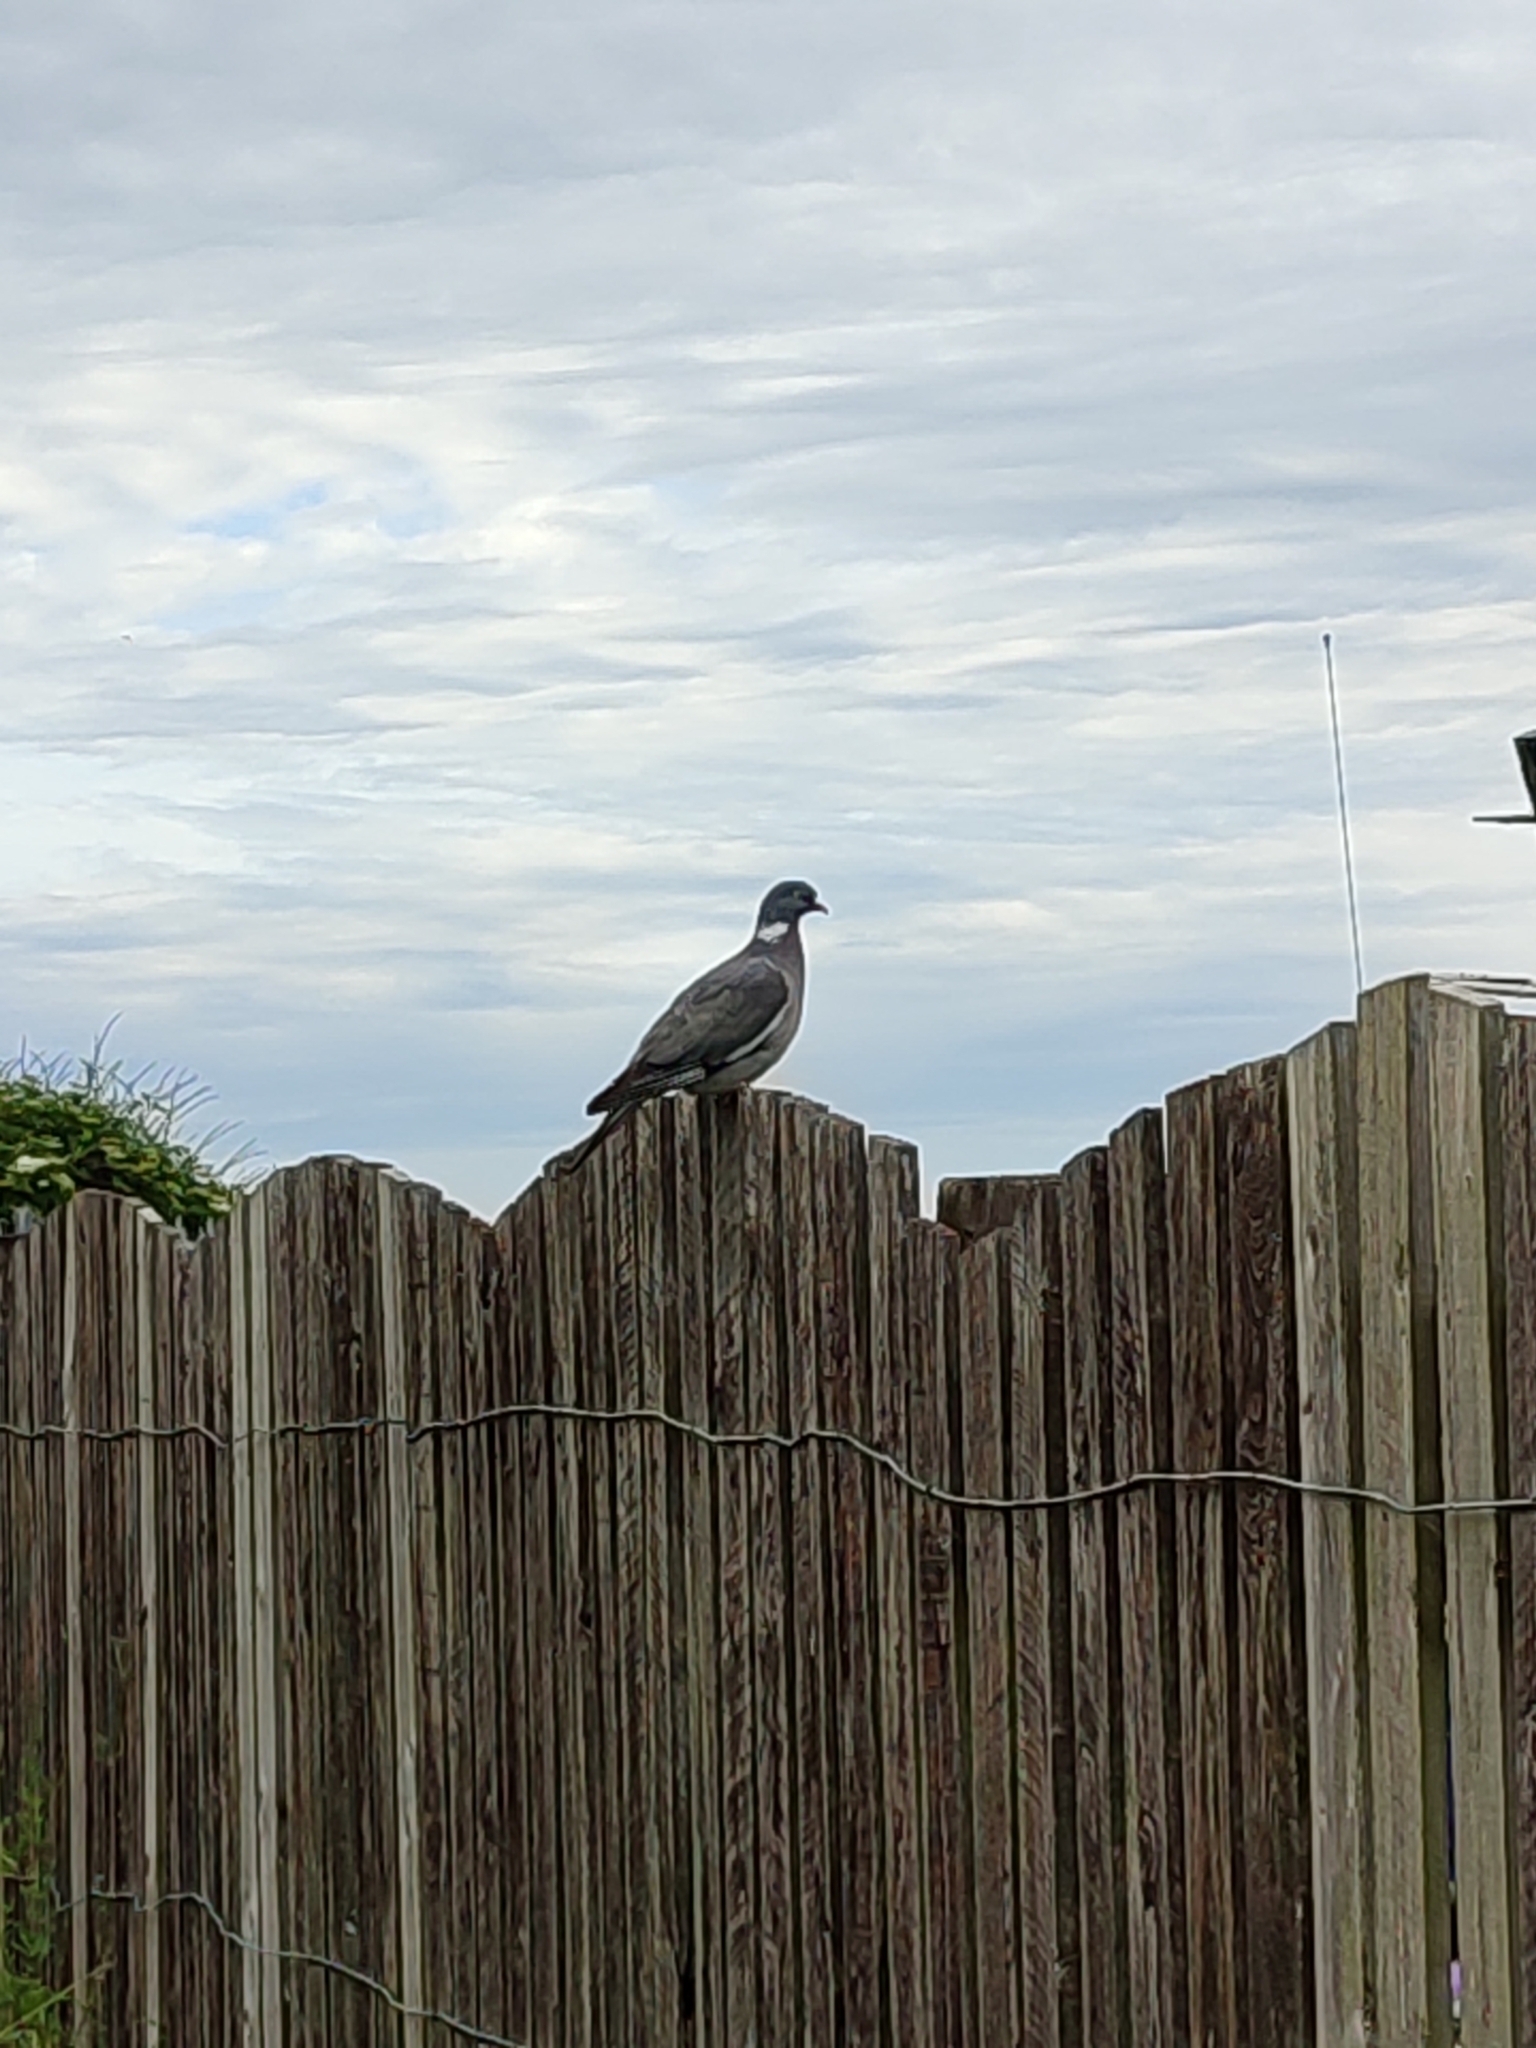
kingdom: Animalia
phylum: Chordata
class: Aves
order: Columbiformes
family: Columbidae
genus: Columba
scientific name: Columba palumbus
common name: Common wood pigeon
